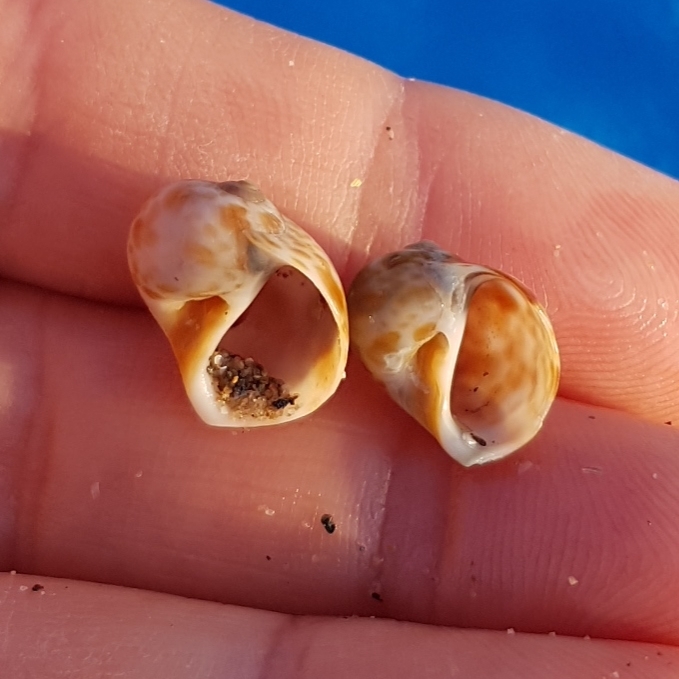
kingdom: Animalia
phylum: Mollusca
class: Gastropoda
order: Littorinimorpha
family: Naticidae
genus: Naticarius
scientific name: Naticarius hebraeus
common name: Hebrew moon shell
